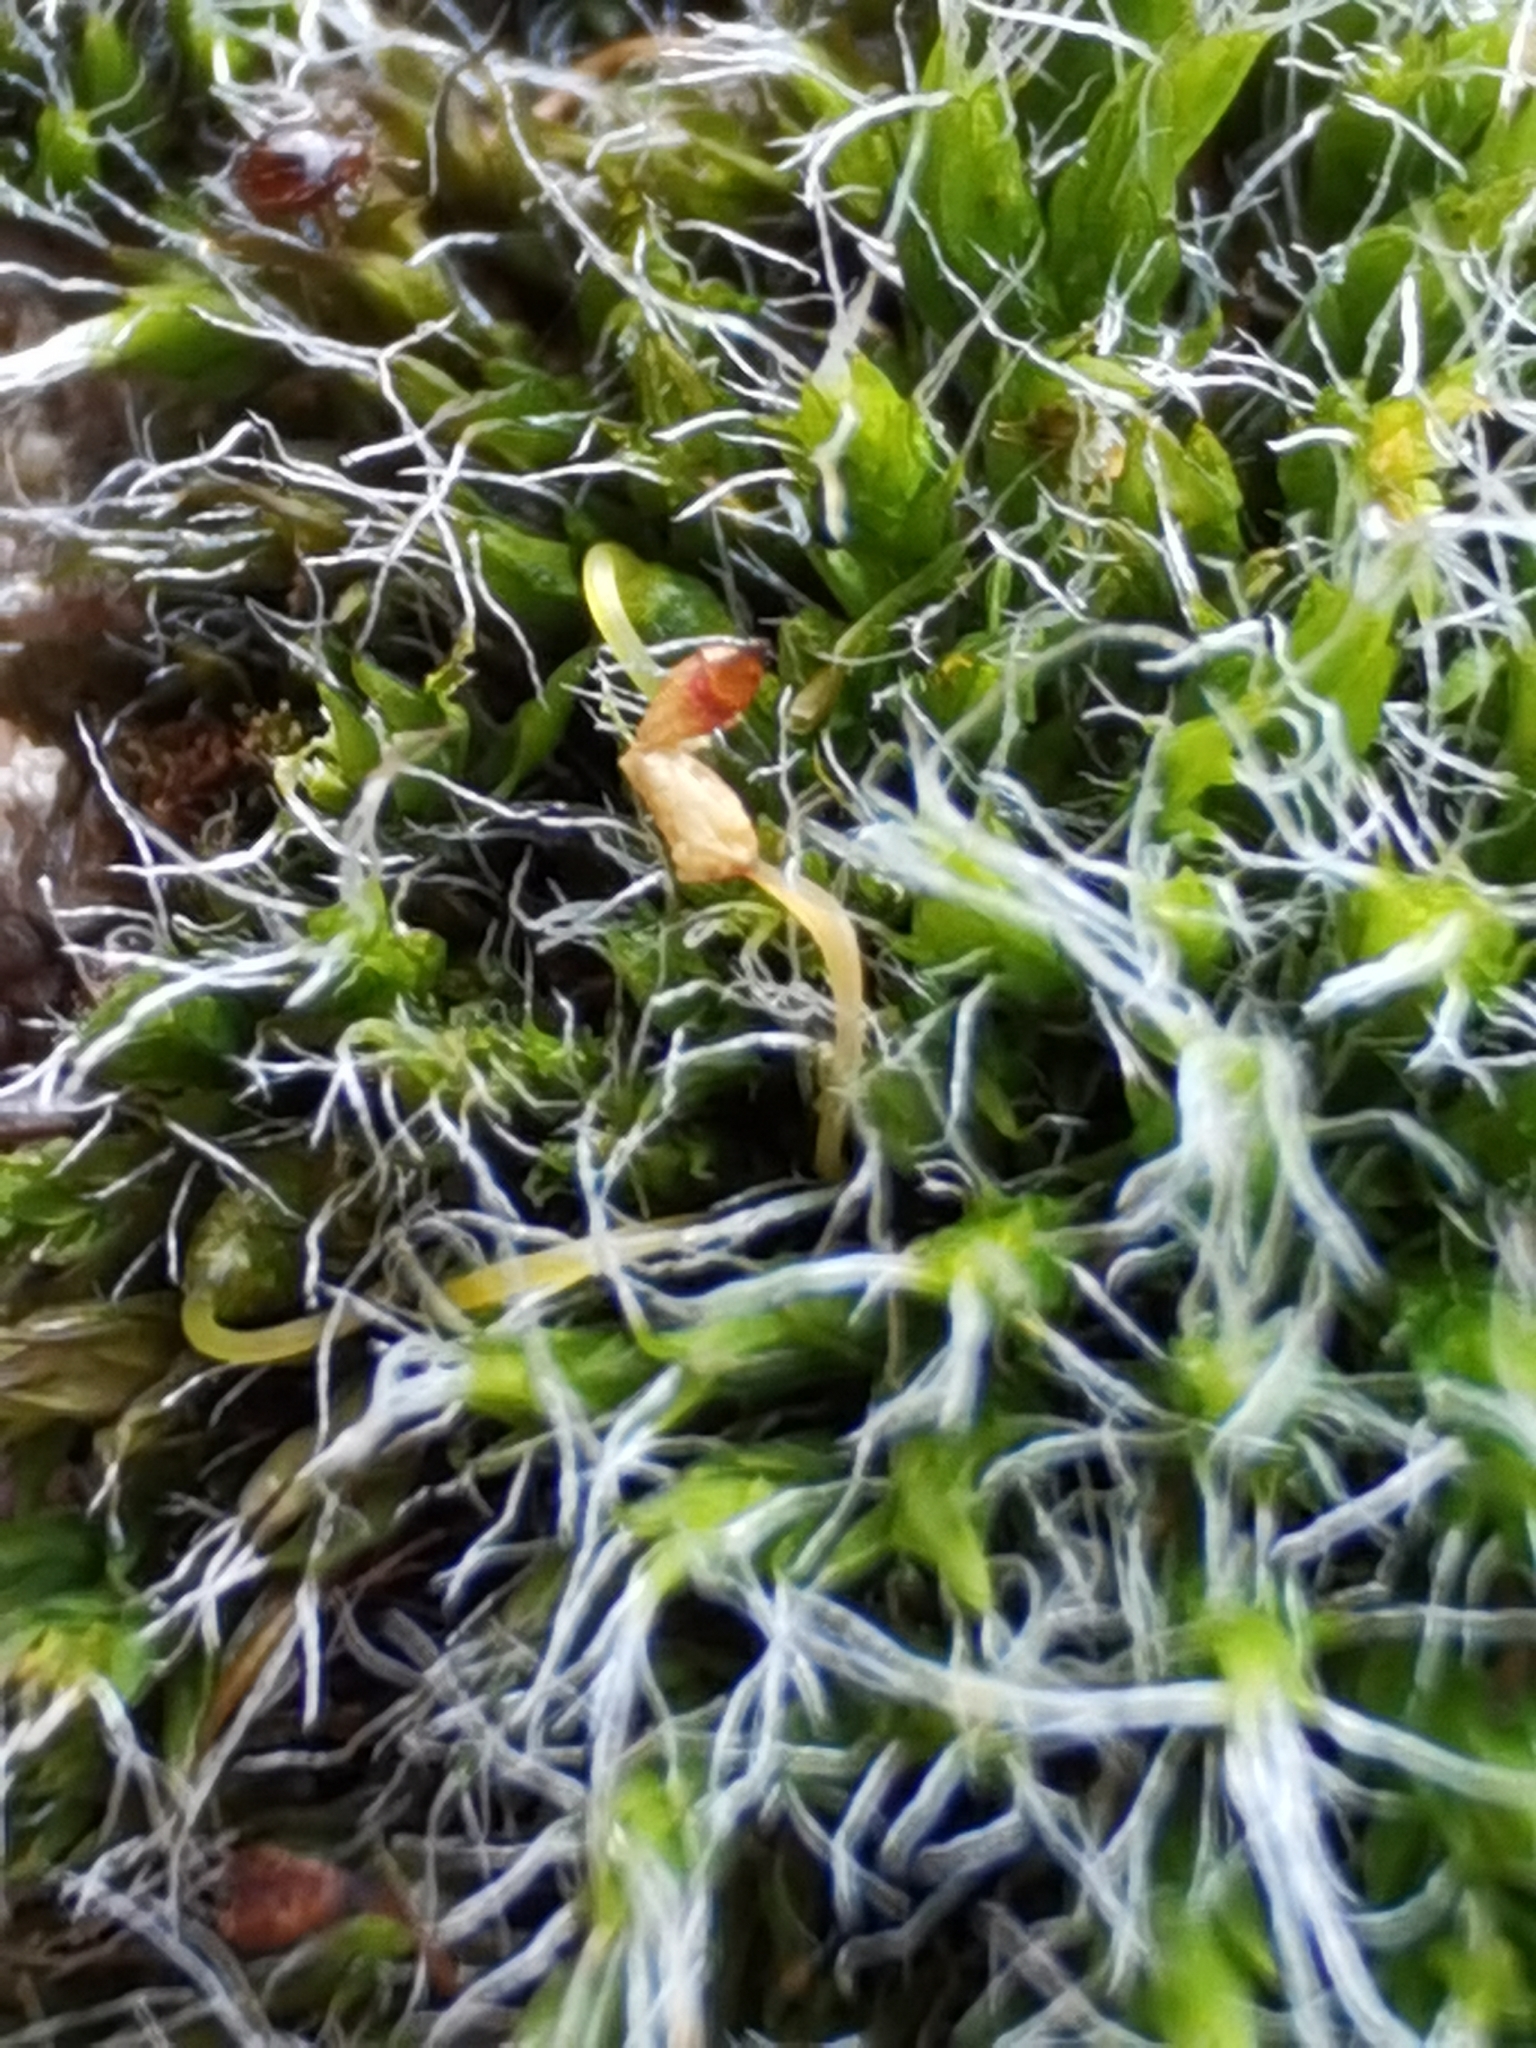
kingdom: Plantae
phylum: Bryophyta
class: Bryopsida
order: Grimmiales
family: Grimmiaceae
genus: Grimmia
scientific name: Grimmia pulvinata
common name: Grey-cushioned grimmia
